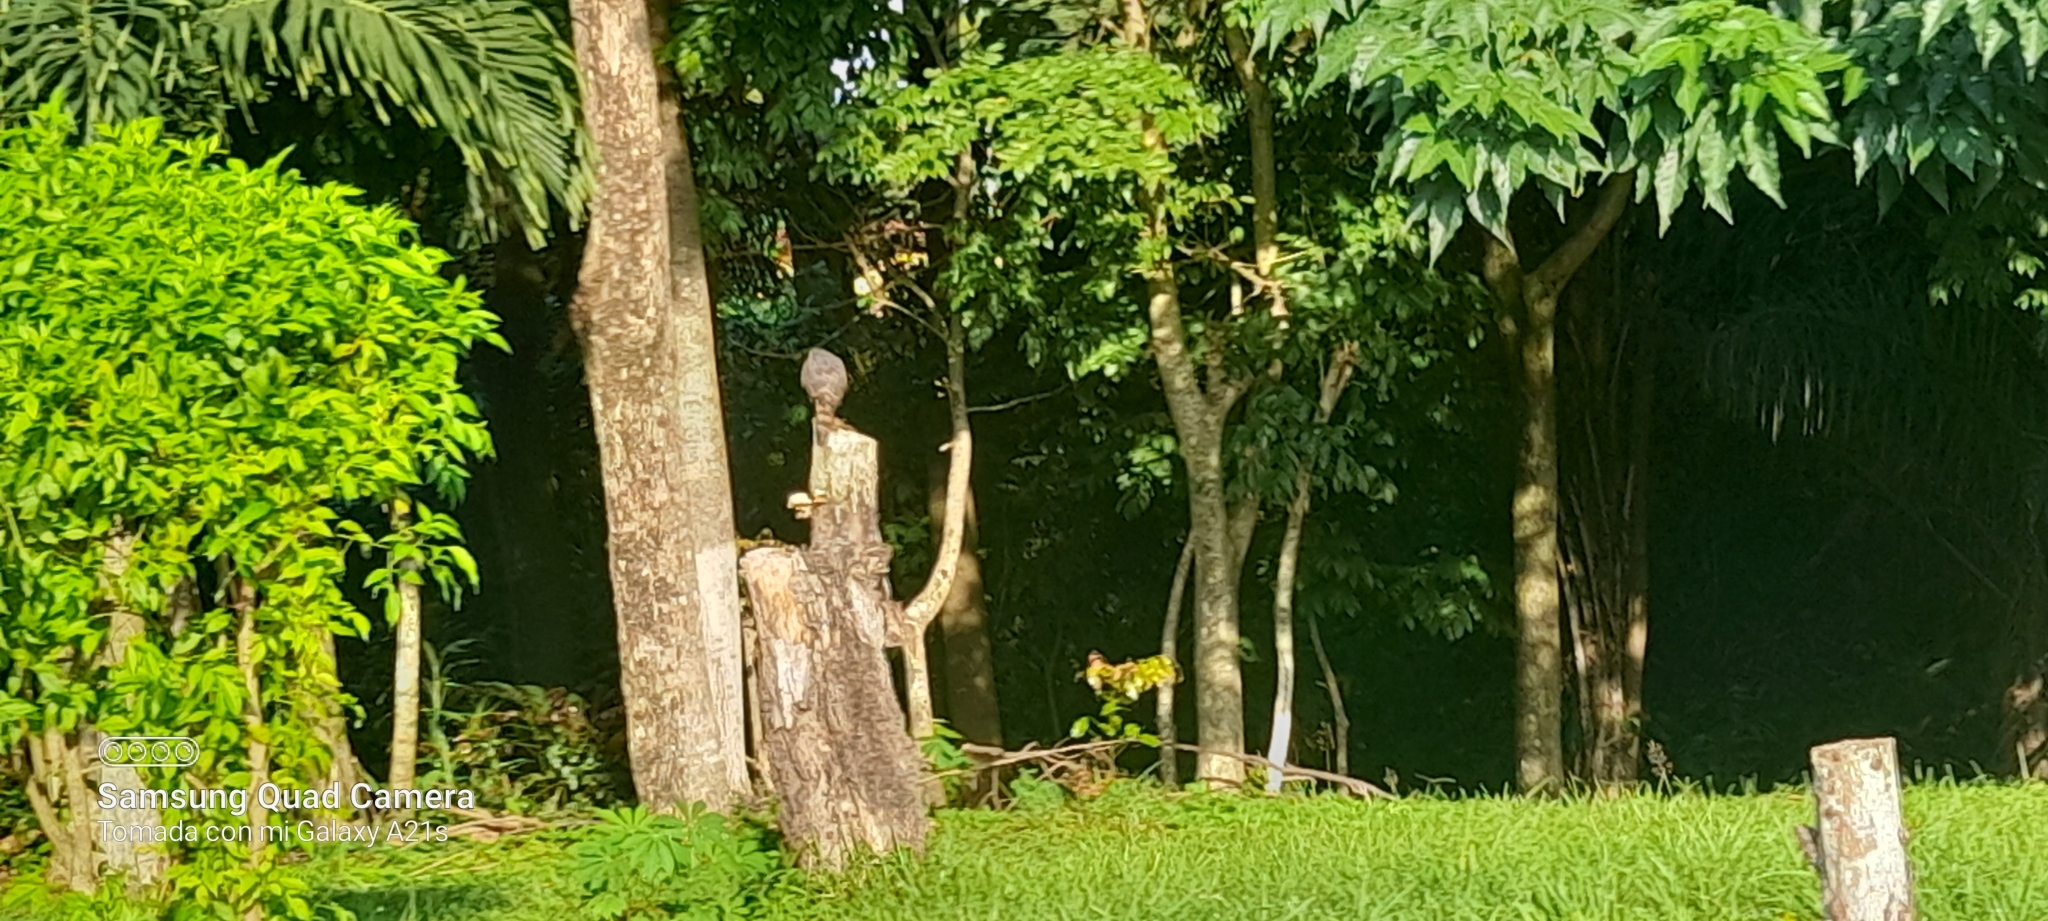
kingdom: Animalia
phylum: Chordata
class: Aves
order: Accipitriformes
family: Accipitridae
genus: Rupornis
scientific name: Rupornis magnirostris
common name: Roadside hawk
